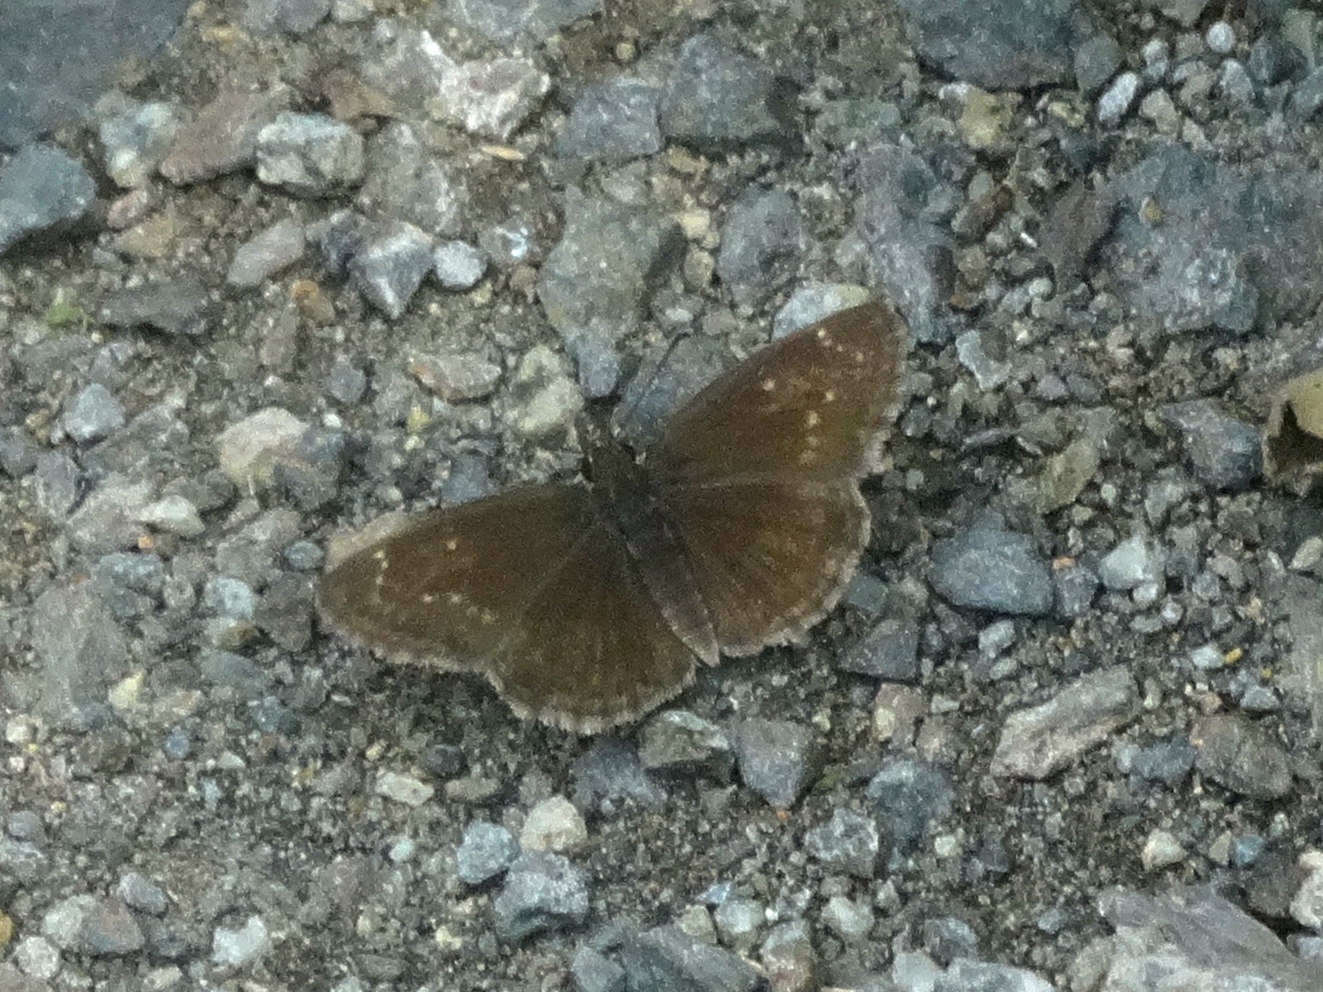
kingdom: Animalia
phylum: Arthropoda
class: Insecta
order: Lepidoptera
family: Hesperiidae
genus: Zopyrion
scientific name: Zopyrion sandace
